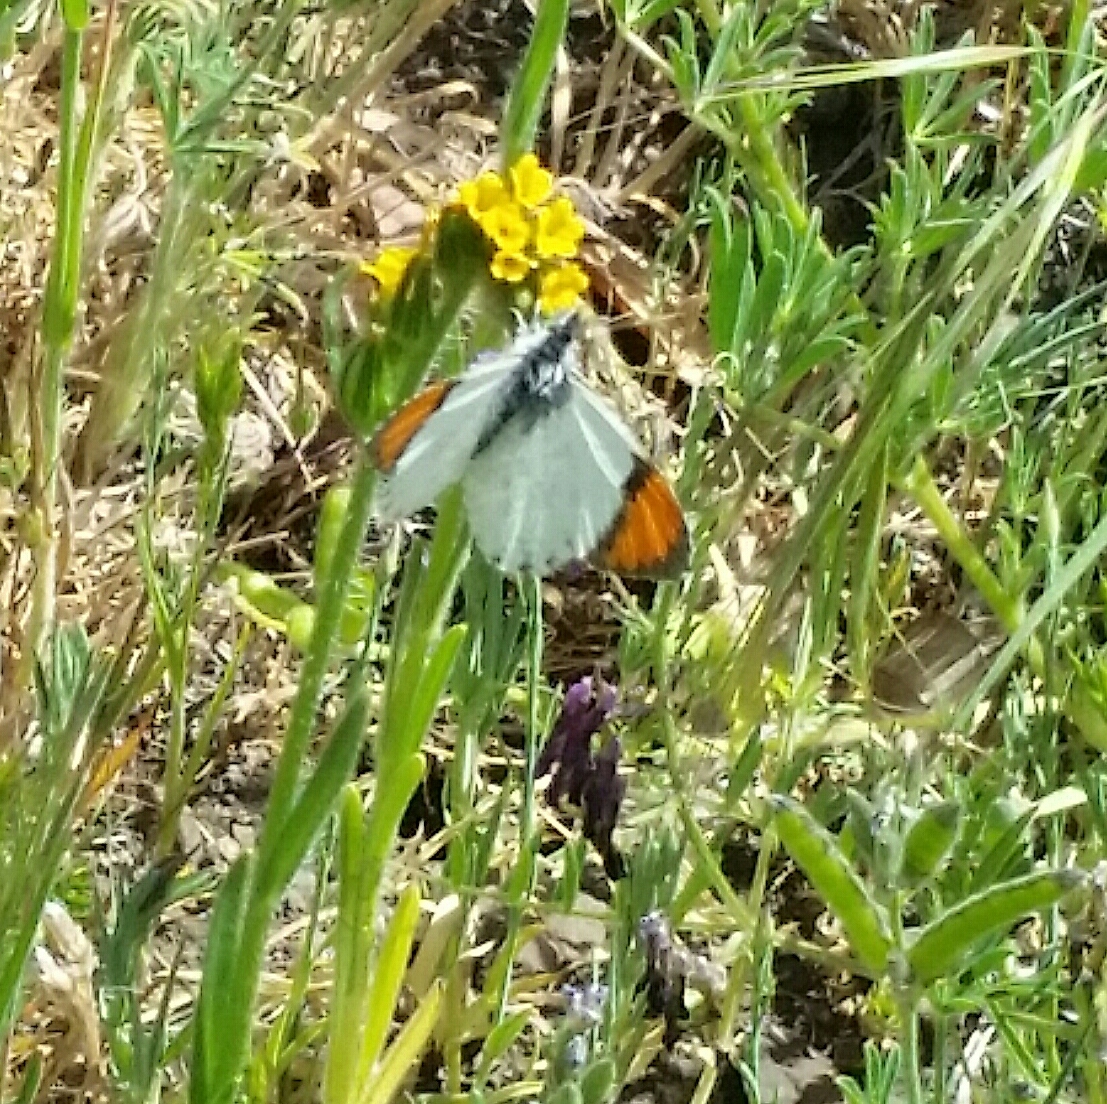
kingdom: Animalia
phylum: Arthropoda
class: Insecta
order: Lepidoptera
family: Pieridae
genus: Anthocharis
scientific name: Anthocharis sara
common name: Sara's orangetip
